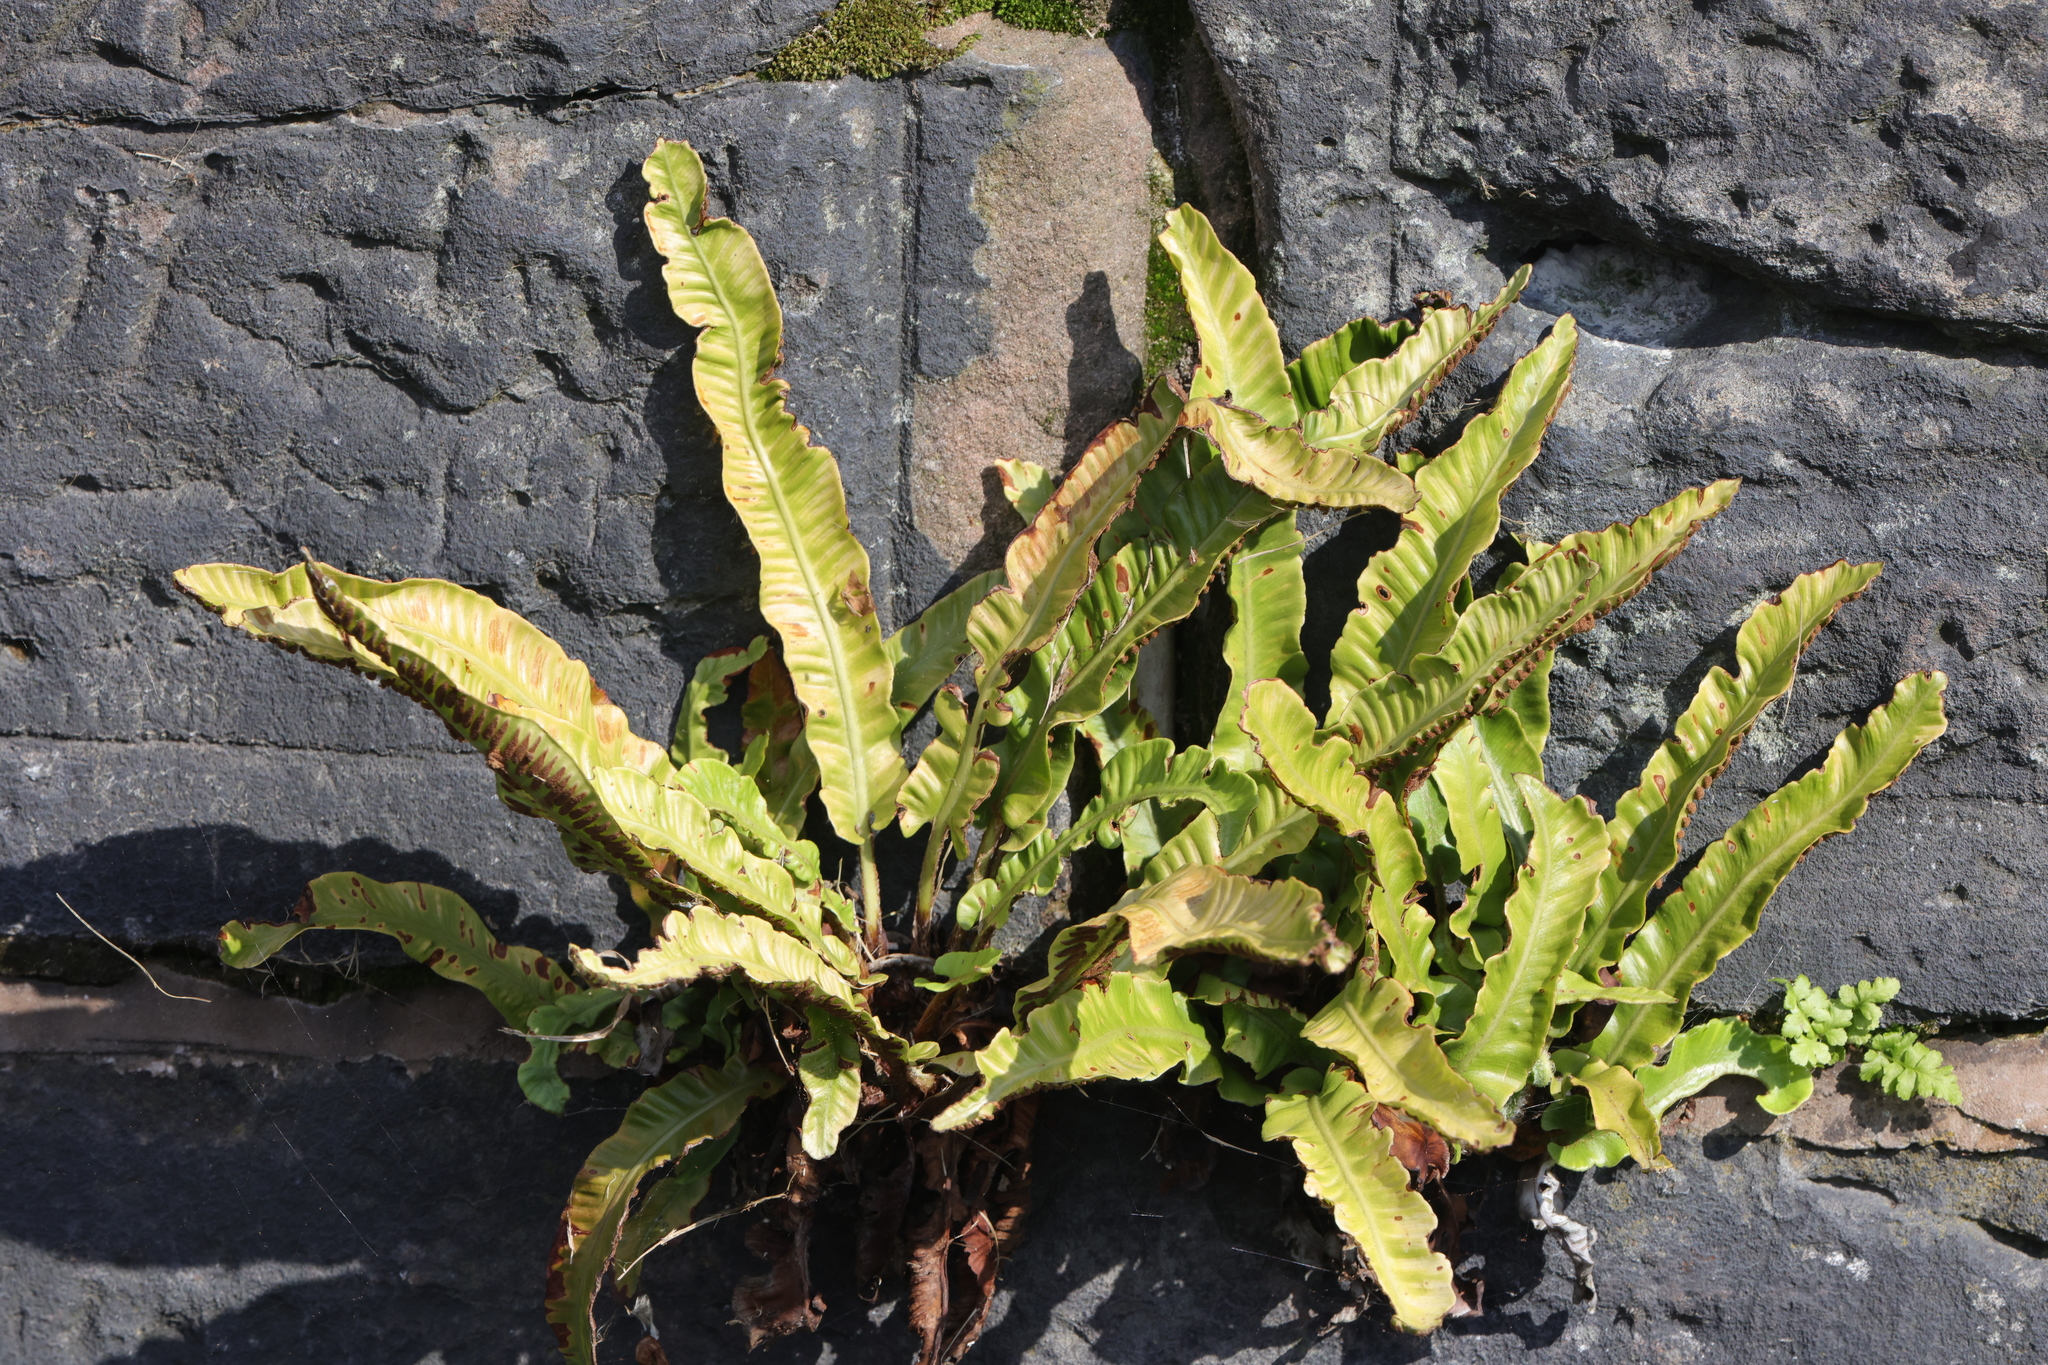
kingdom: Plantae
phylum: Tracheophyta
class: Polypodiopsida
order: Polypodiales
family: Aspleniaceae
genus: Asplenium
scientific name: Asplenium scolopendrium
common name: Hart's-tongue fern
